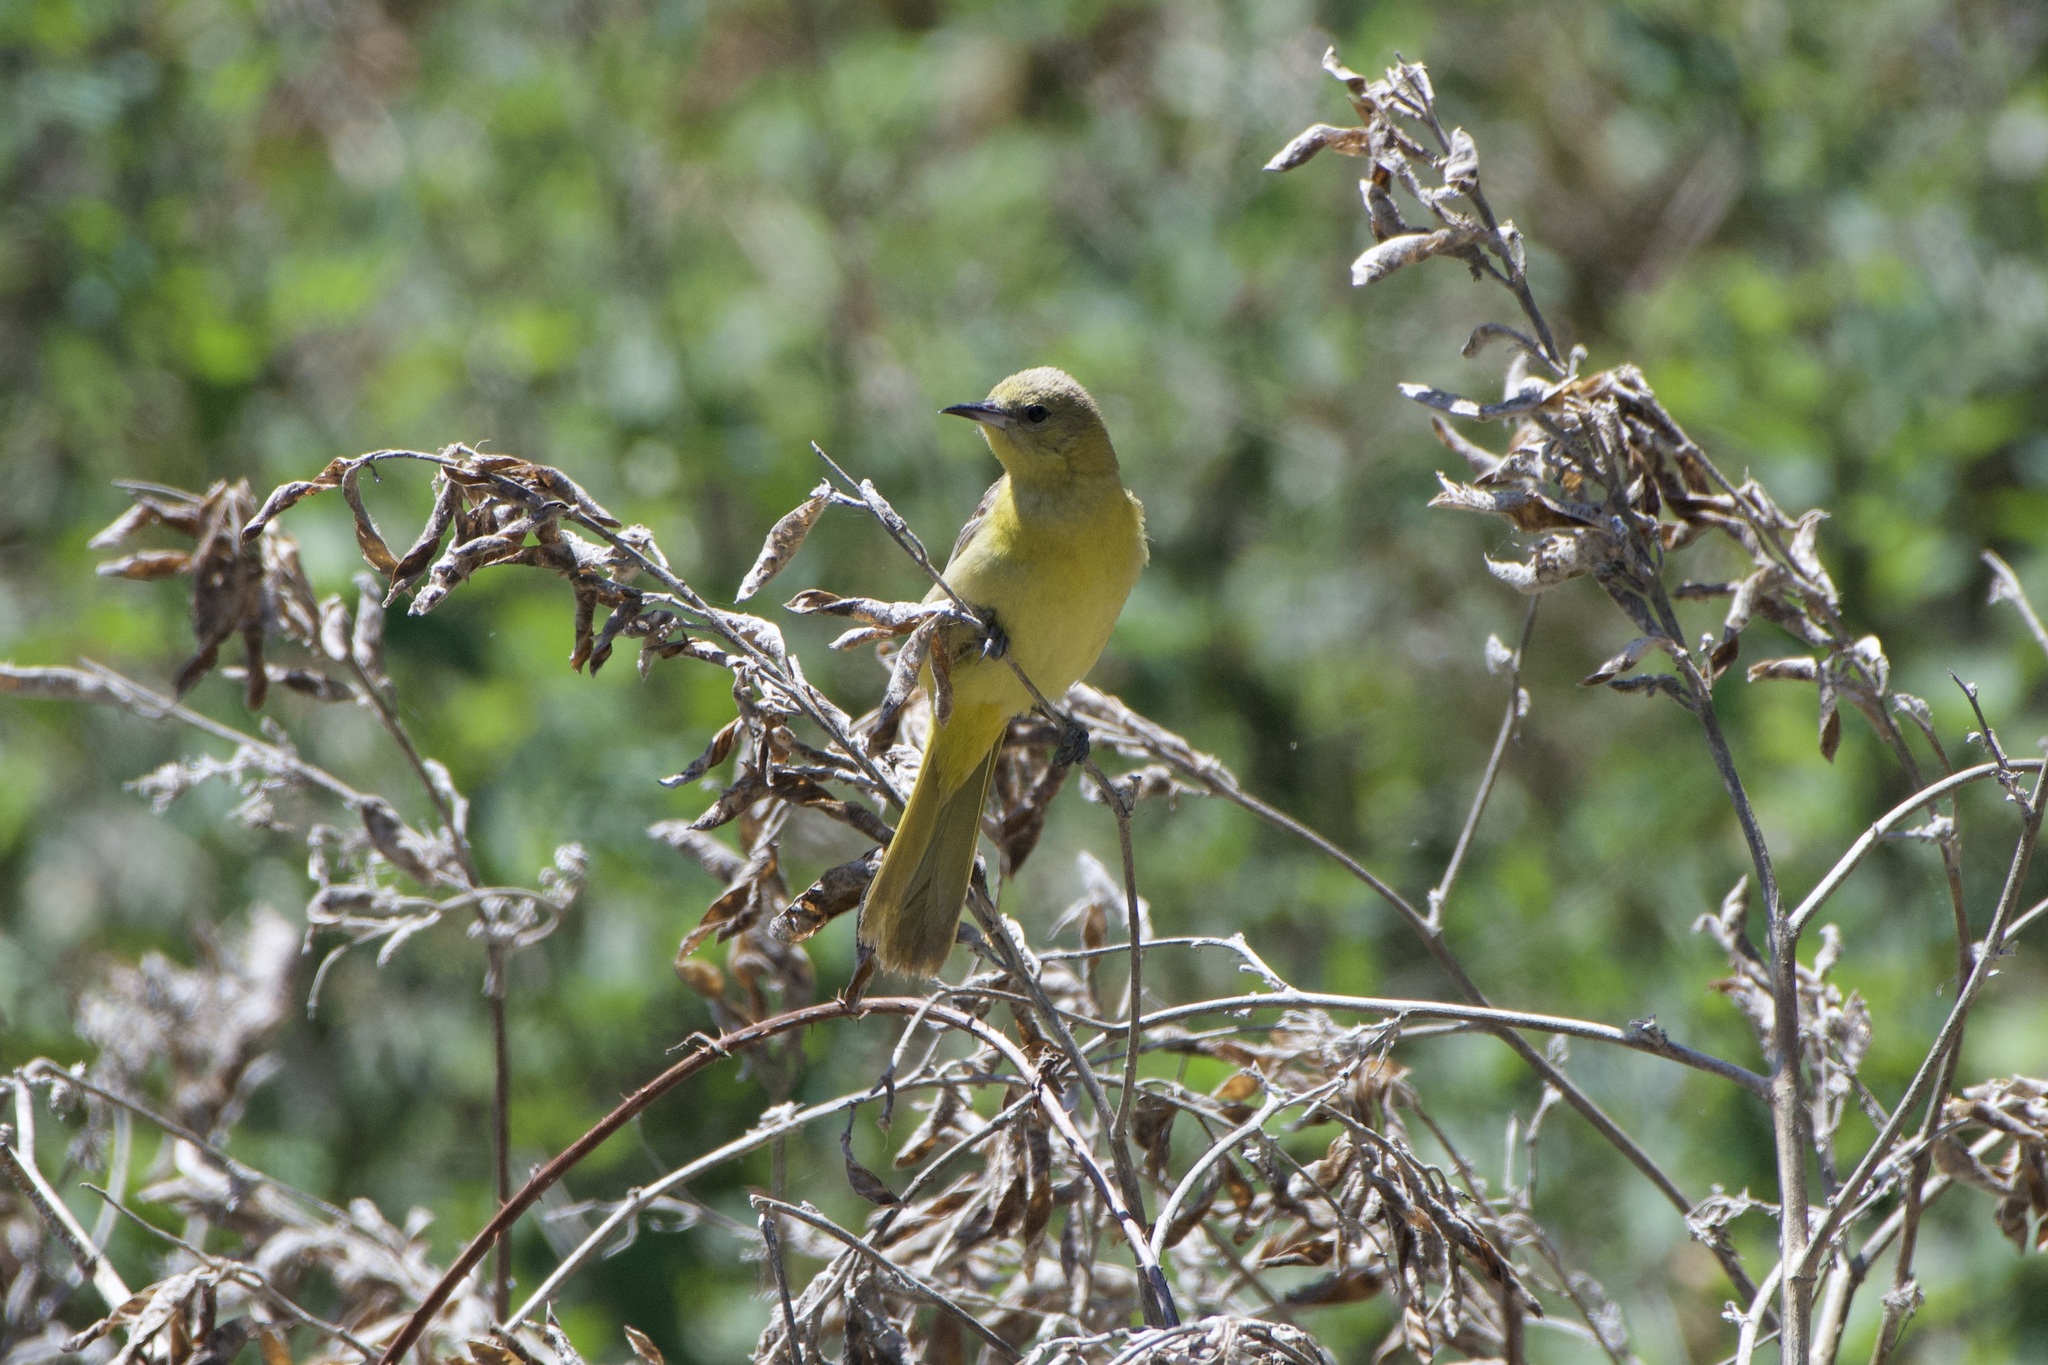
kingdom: Animalia
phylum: Chordata
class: Aves
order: Passeriformes
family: Icteridae
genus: Icterus
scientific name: Icterus cucullatus
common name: Hooded oriole
